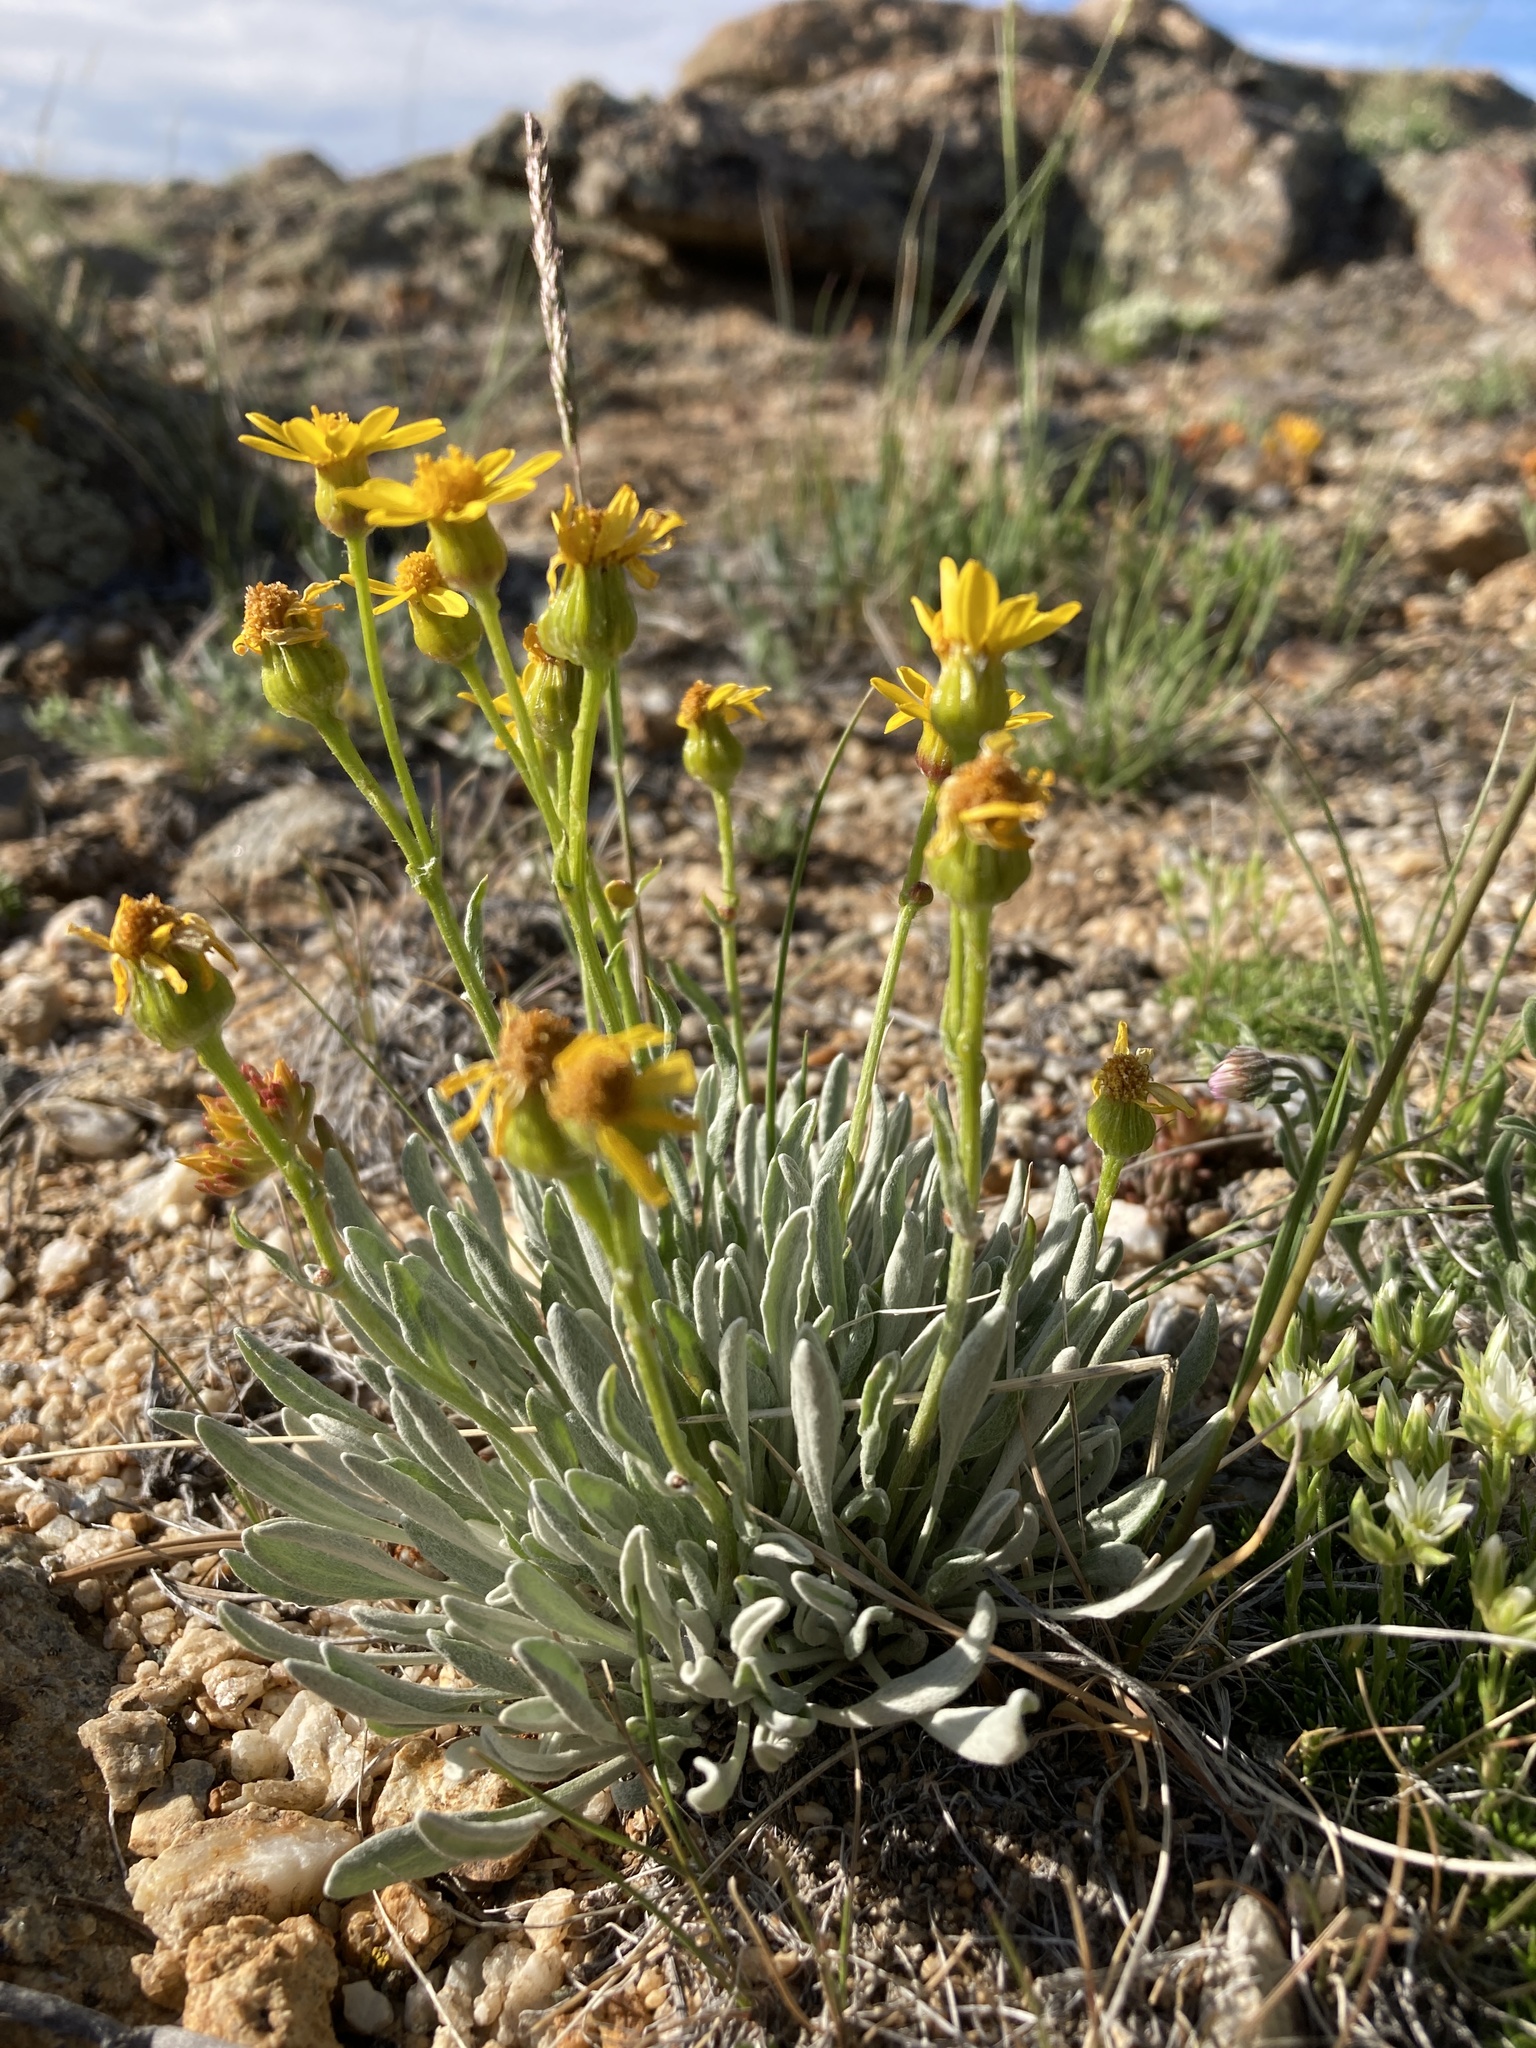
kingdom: Plantae
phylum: Tracheophyta
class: Magnoliopsida
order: Asterales
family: Asteraceae
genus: Packera
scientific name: Packera cana
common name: Woolly groundsel
